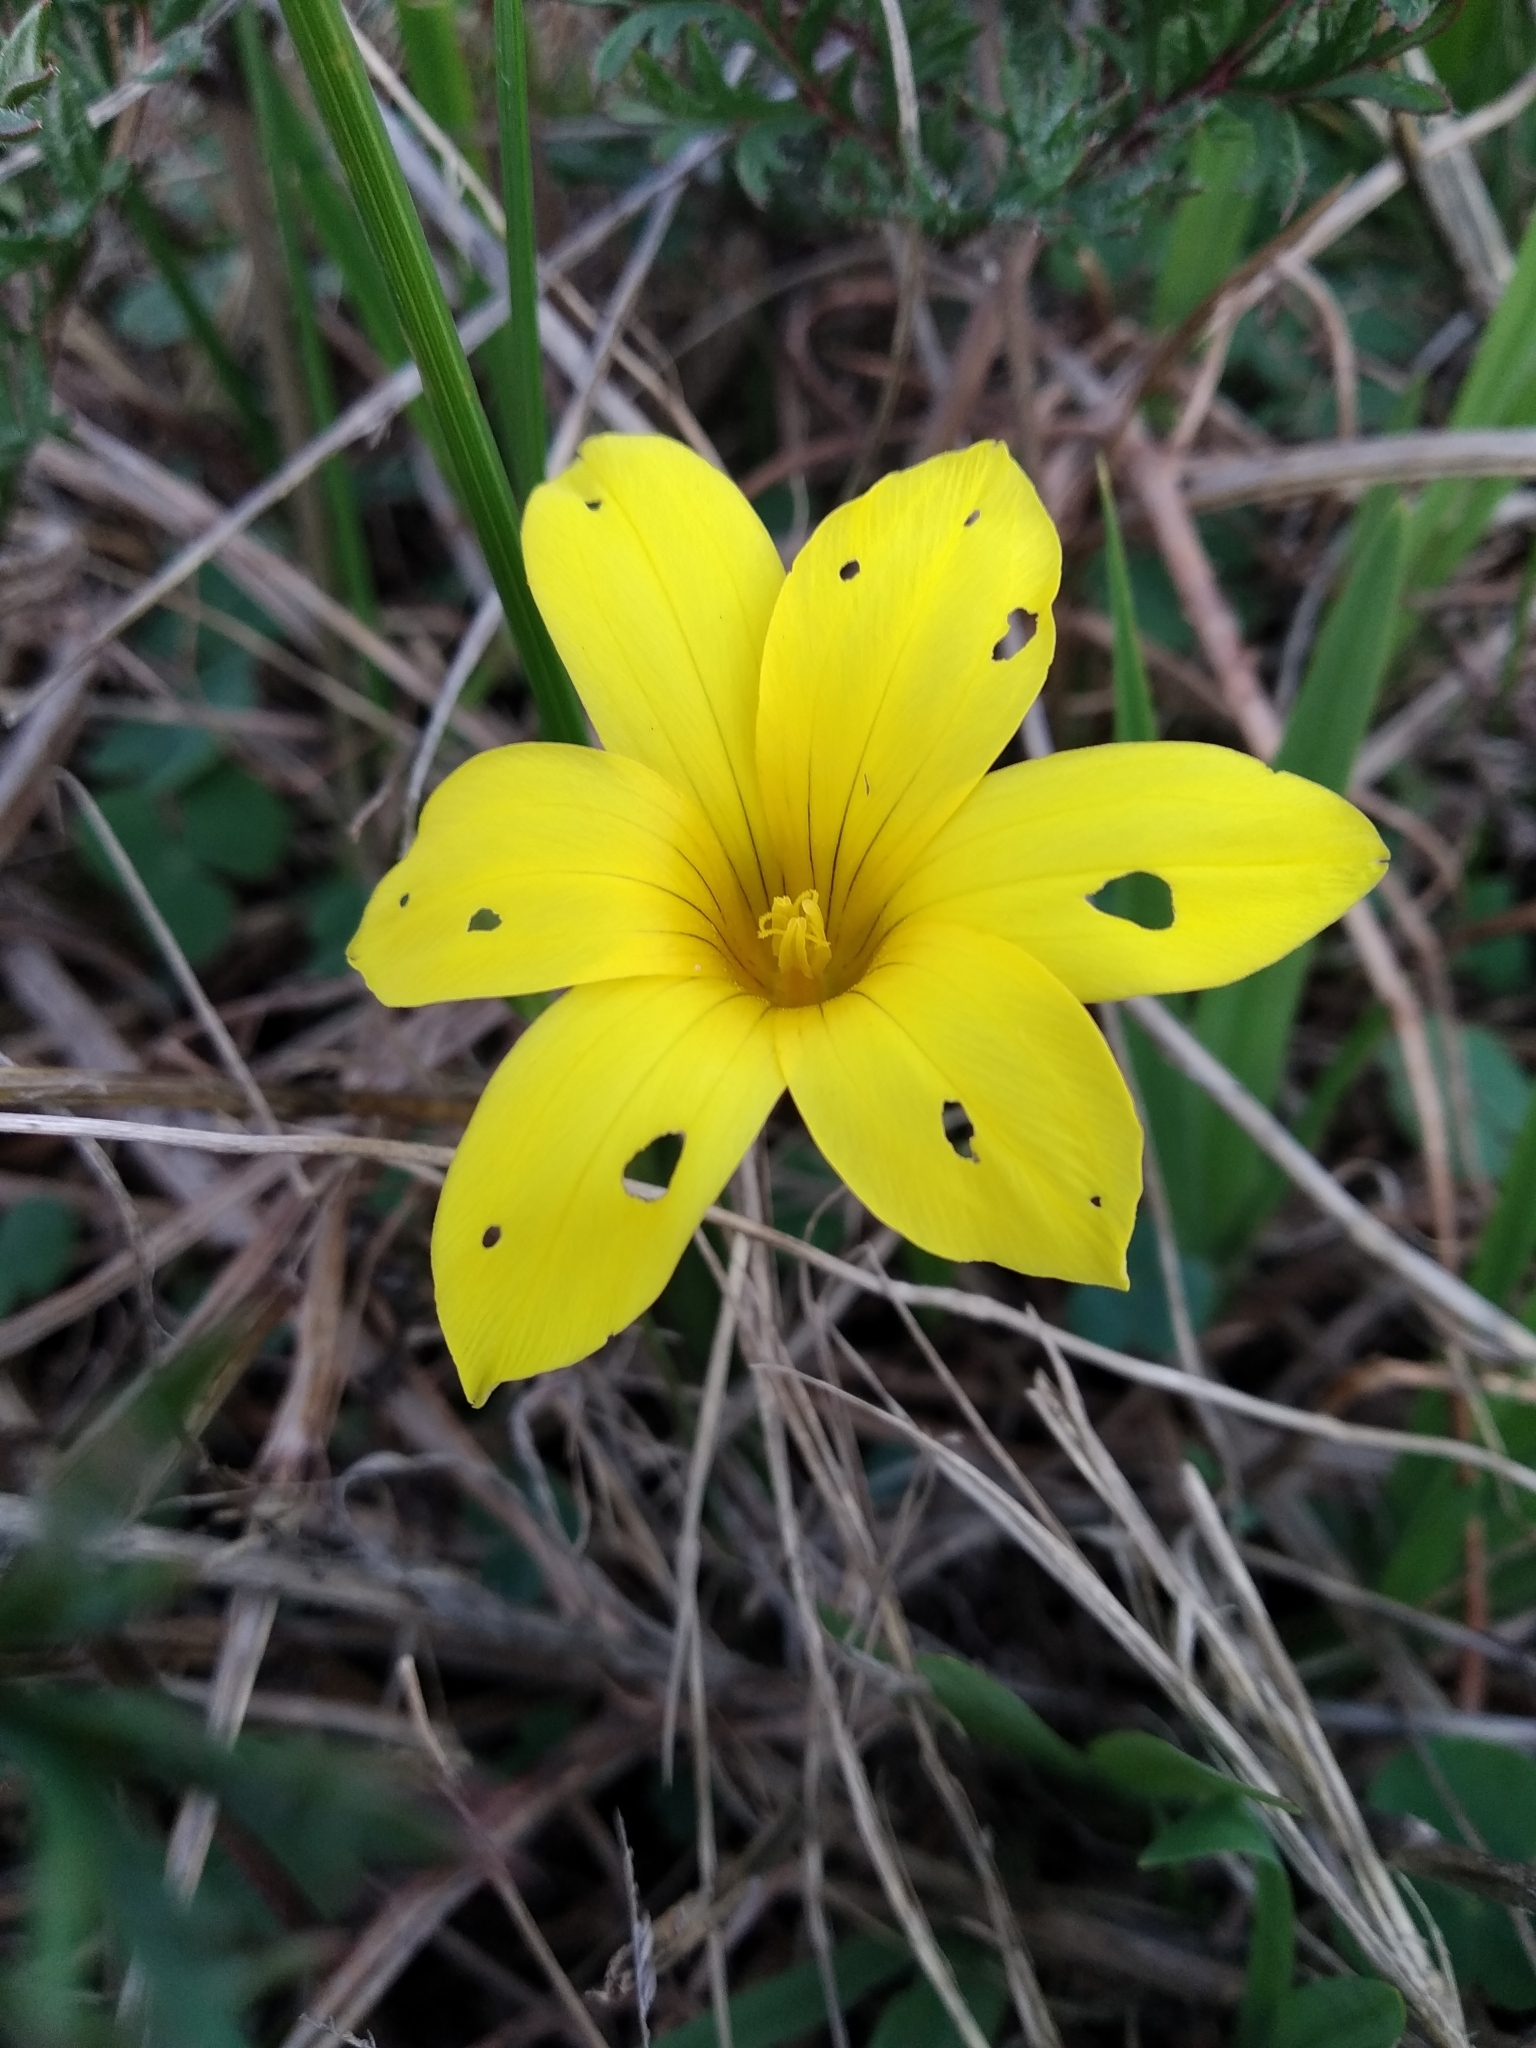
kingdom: Plantae
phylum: Tracheophyta
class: Liliopsida
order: Asparagales
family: Iridaceae
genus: Romulea
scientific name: Romulea flava
